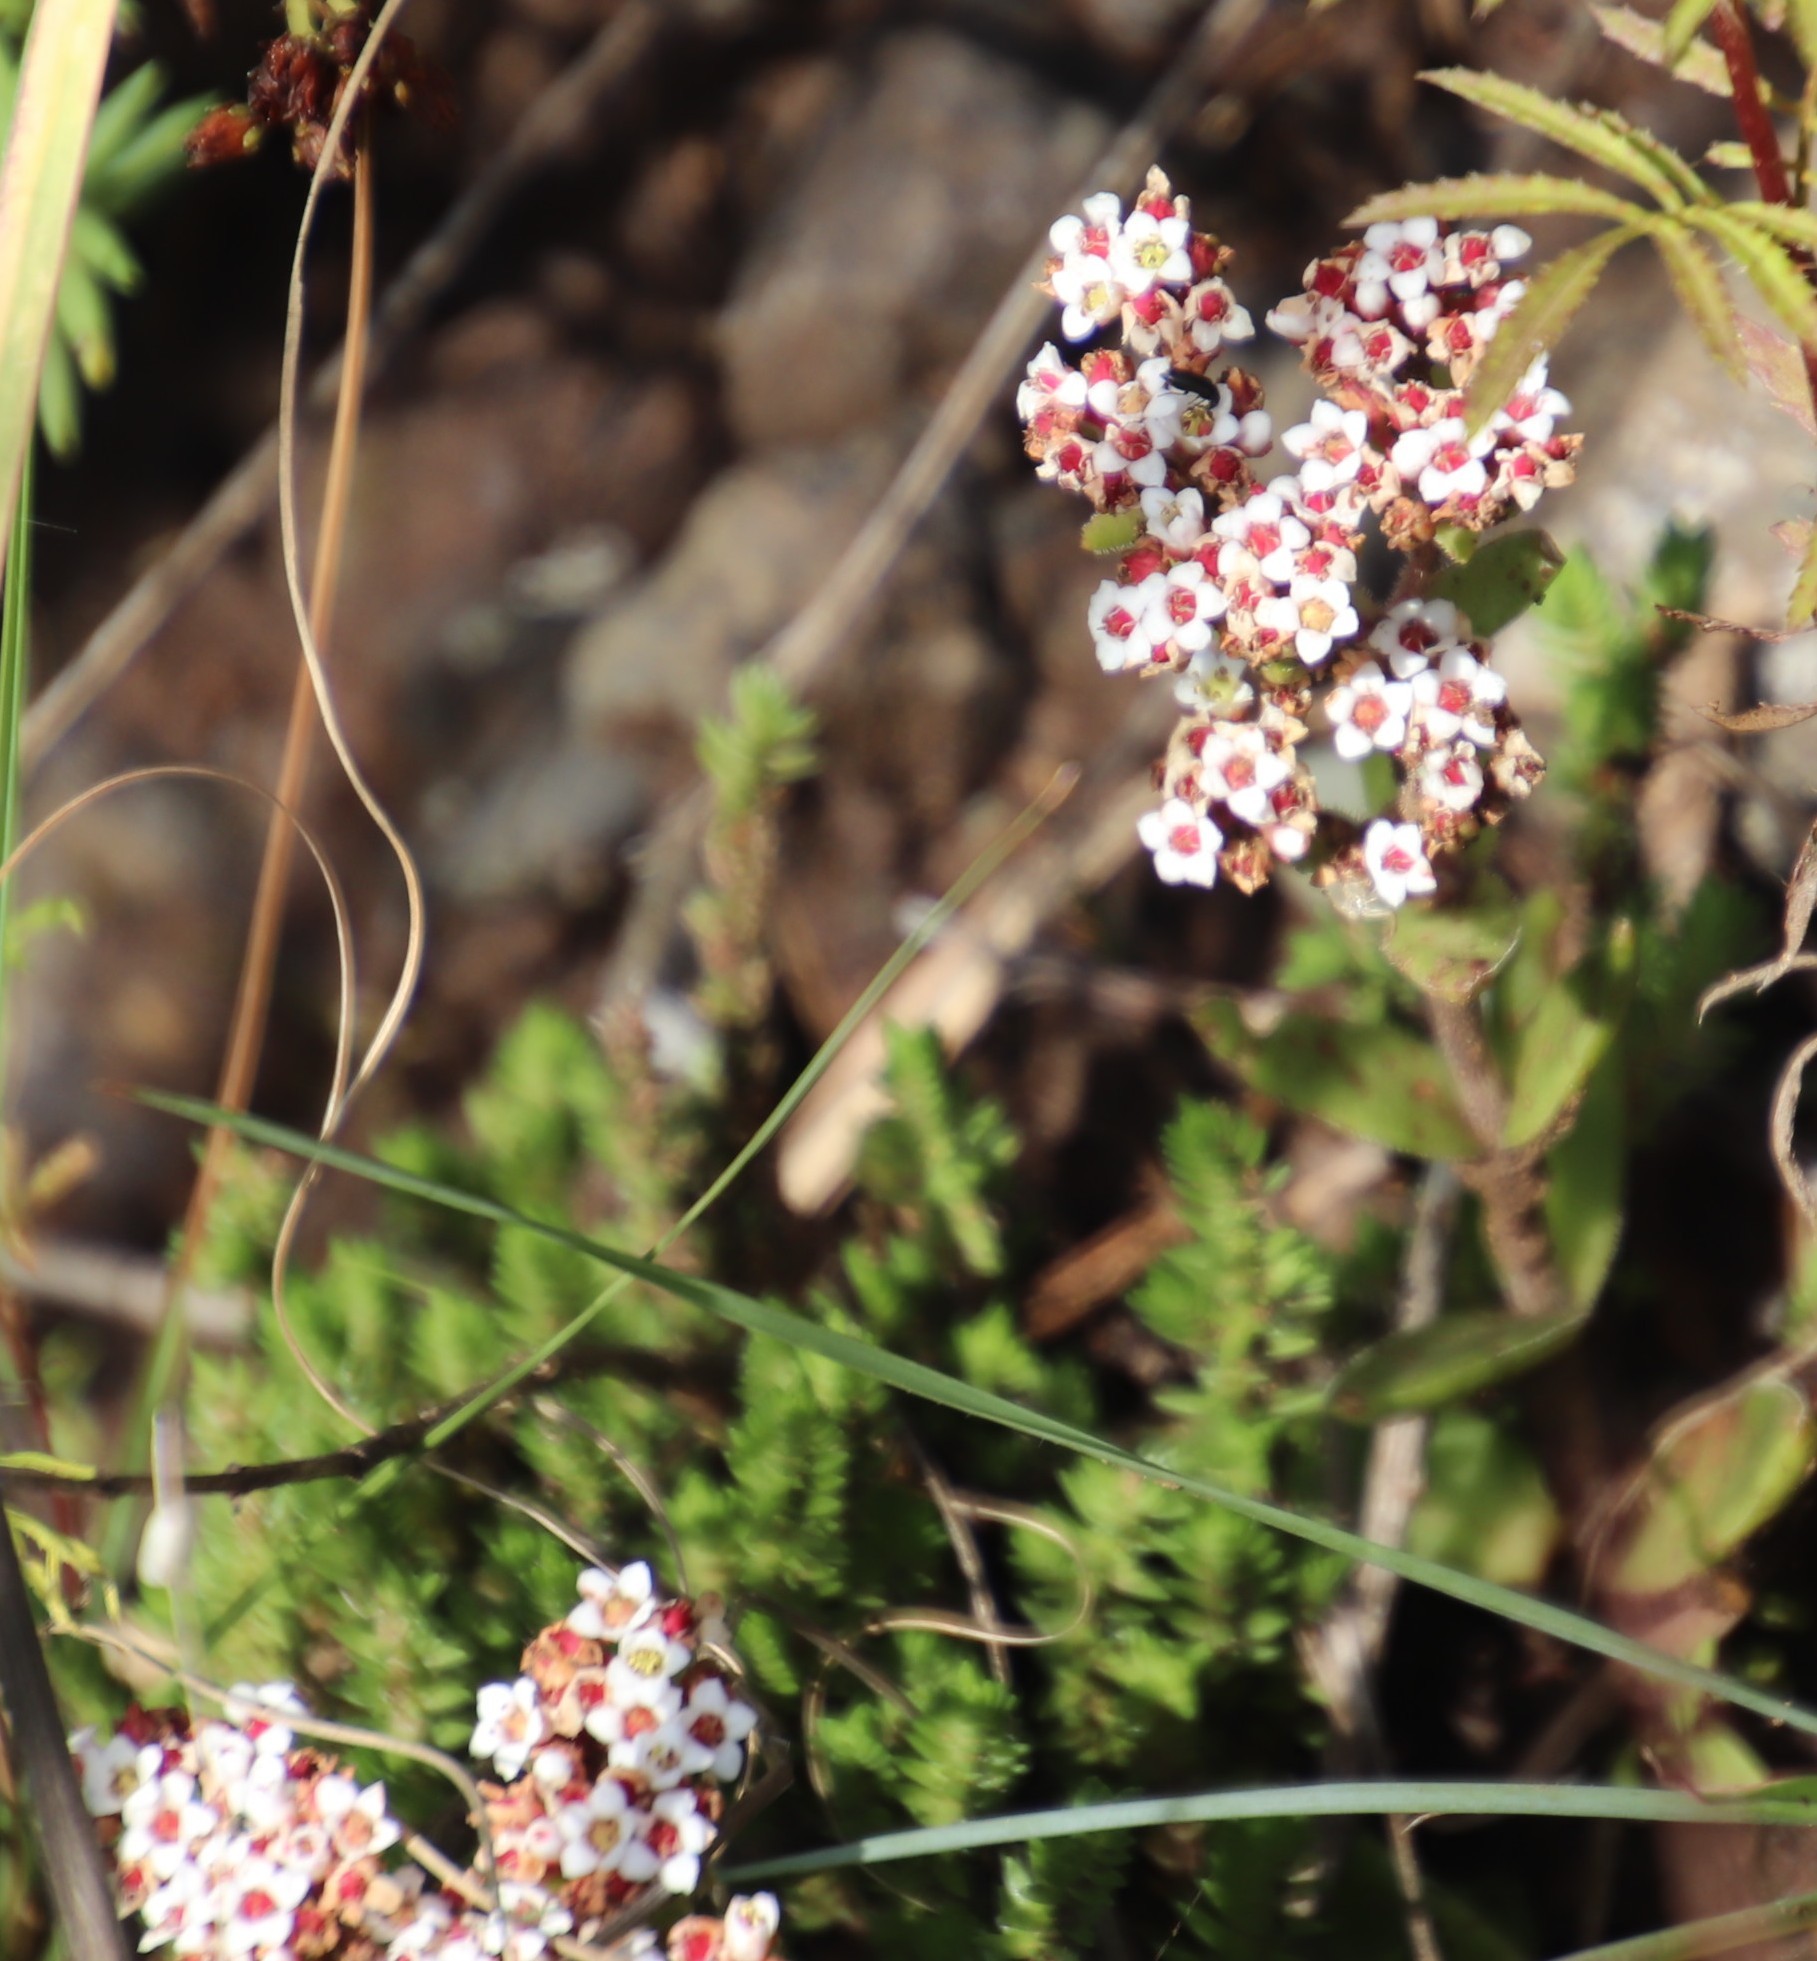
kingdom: Plantae
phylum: Tracheophyta
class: Magnoliopsida
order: Saxifragales
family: Crassulaceae
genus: Crassula
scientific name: Crassula obovata
